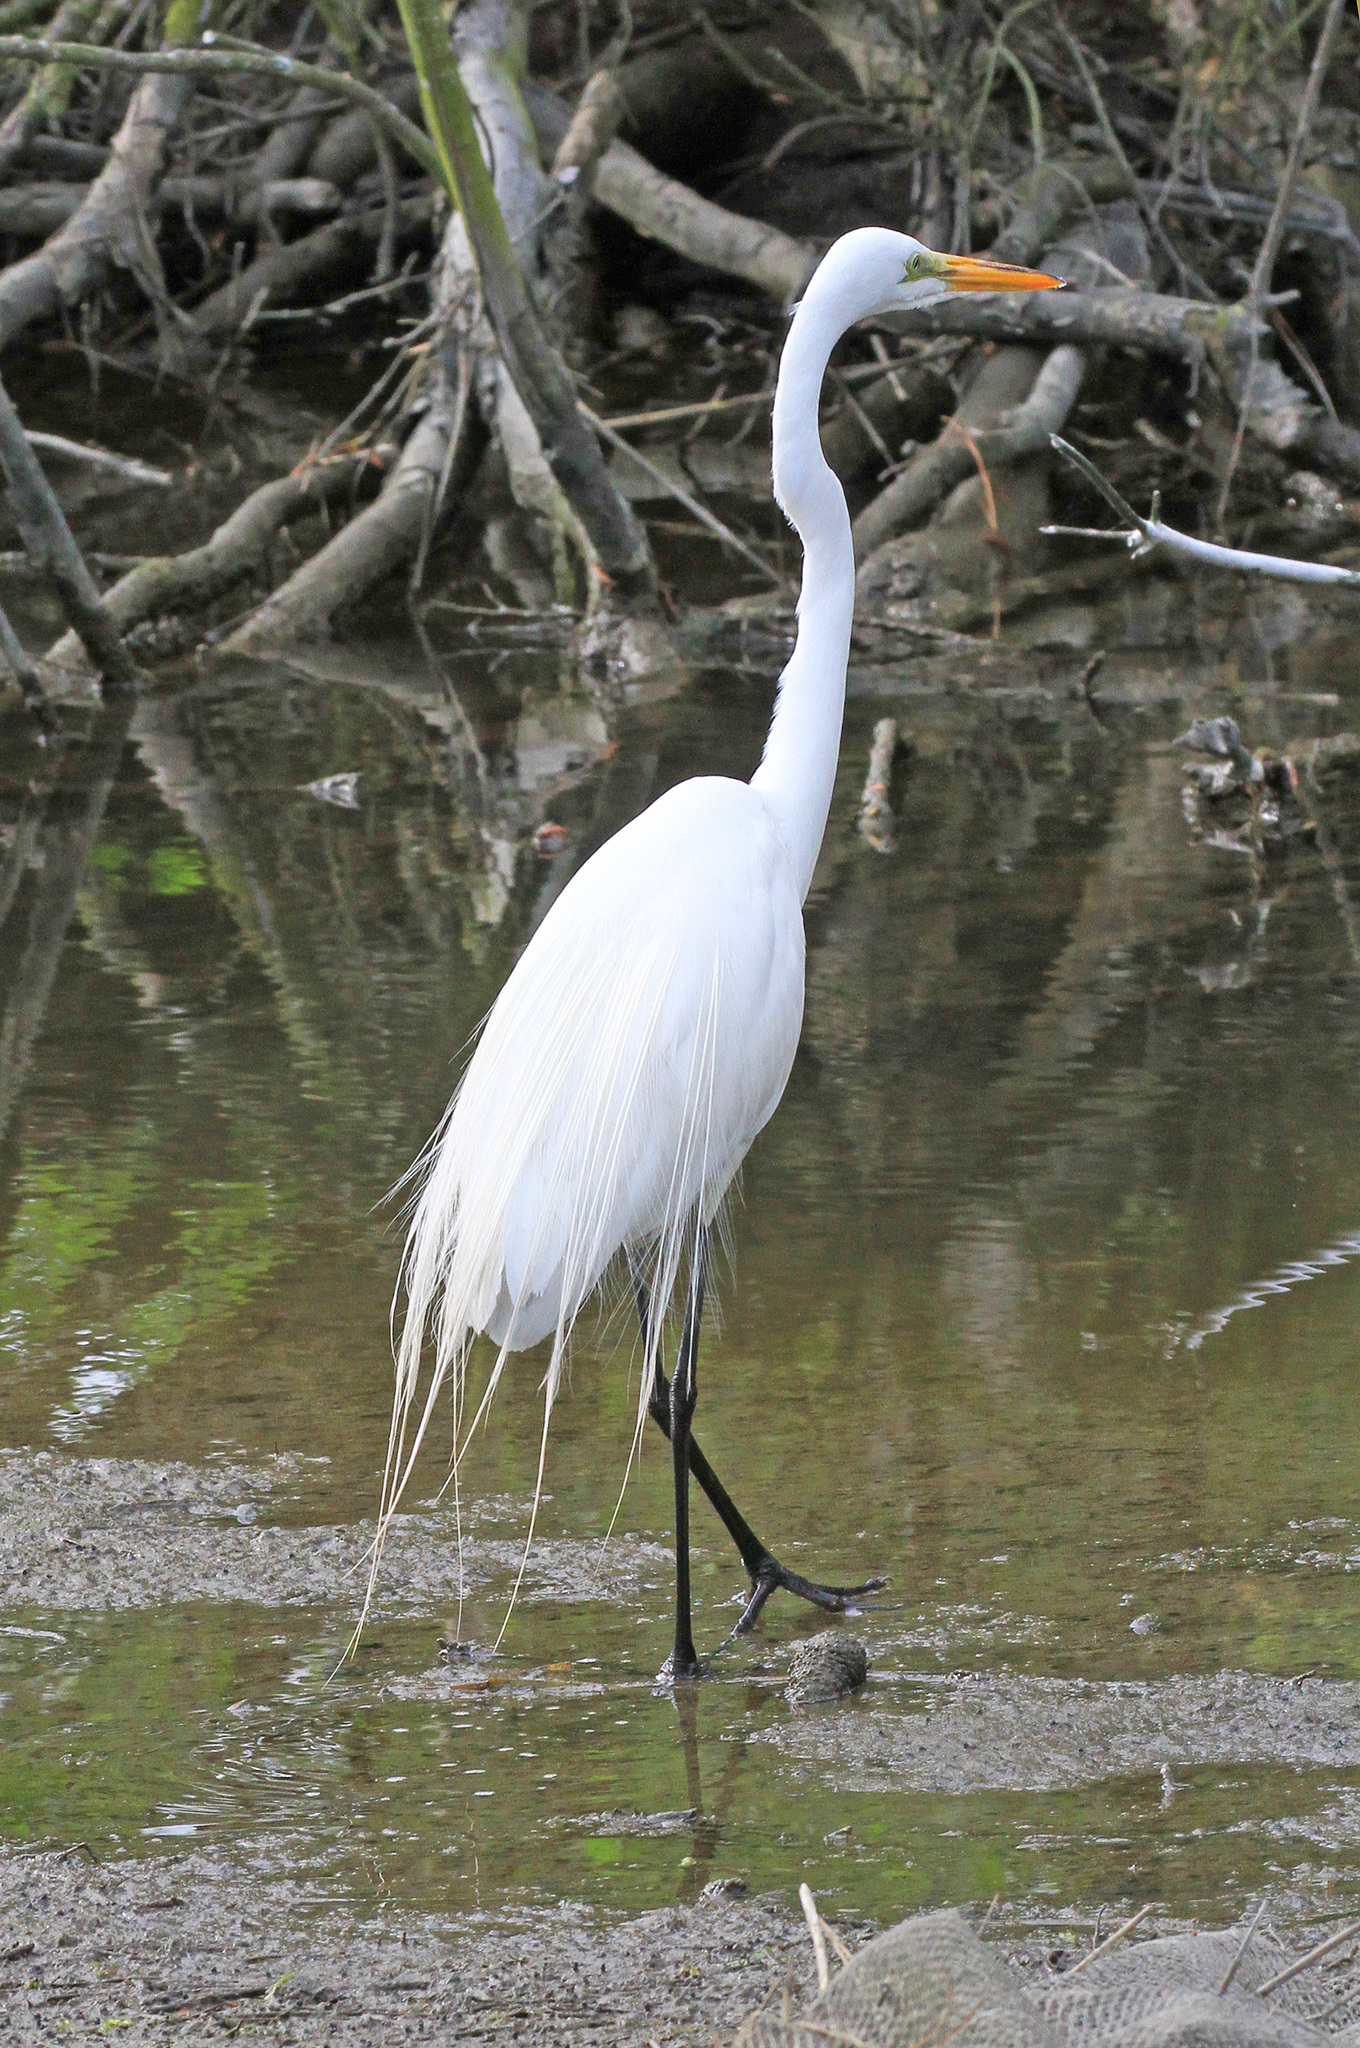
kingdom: Animalia
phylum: Chordata
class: Aves
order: Pelecaniformes
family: Ardeidae
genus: Ardea
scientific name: Ardea alba
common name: Great egret
